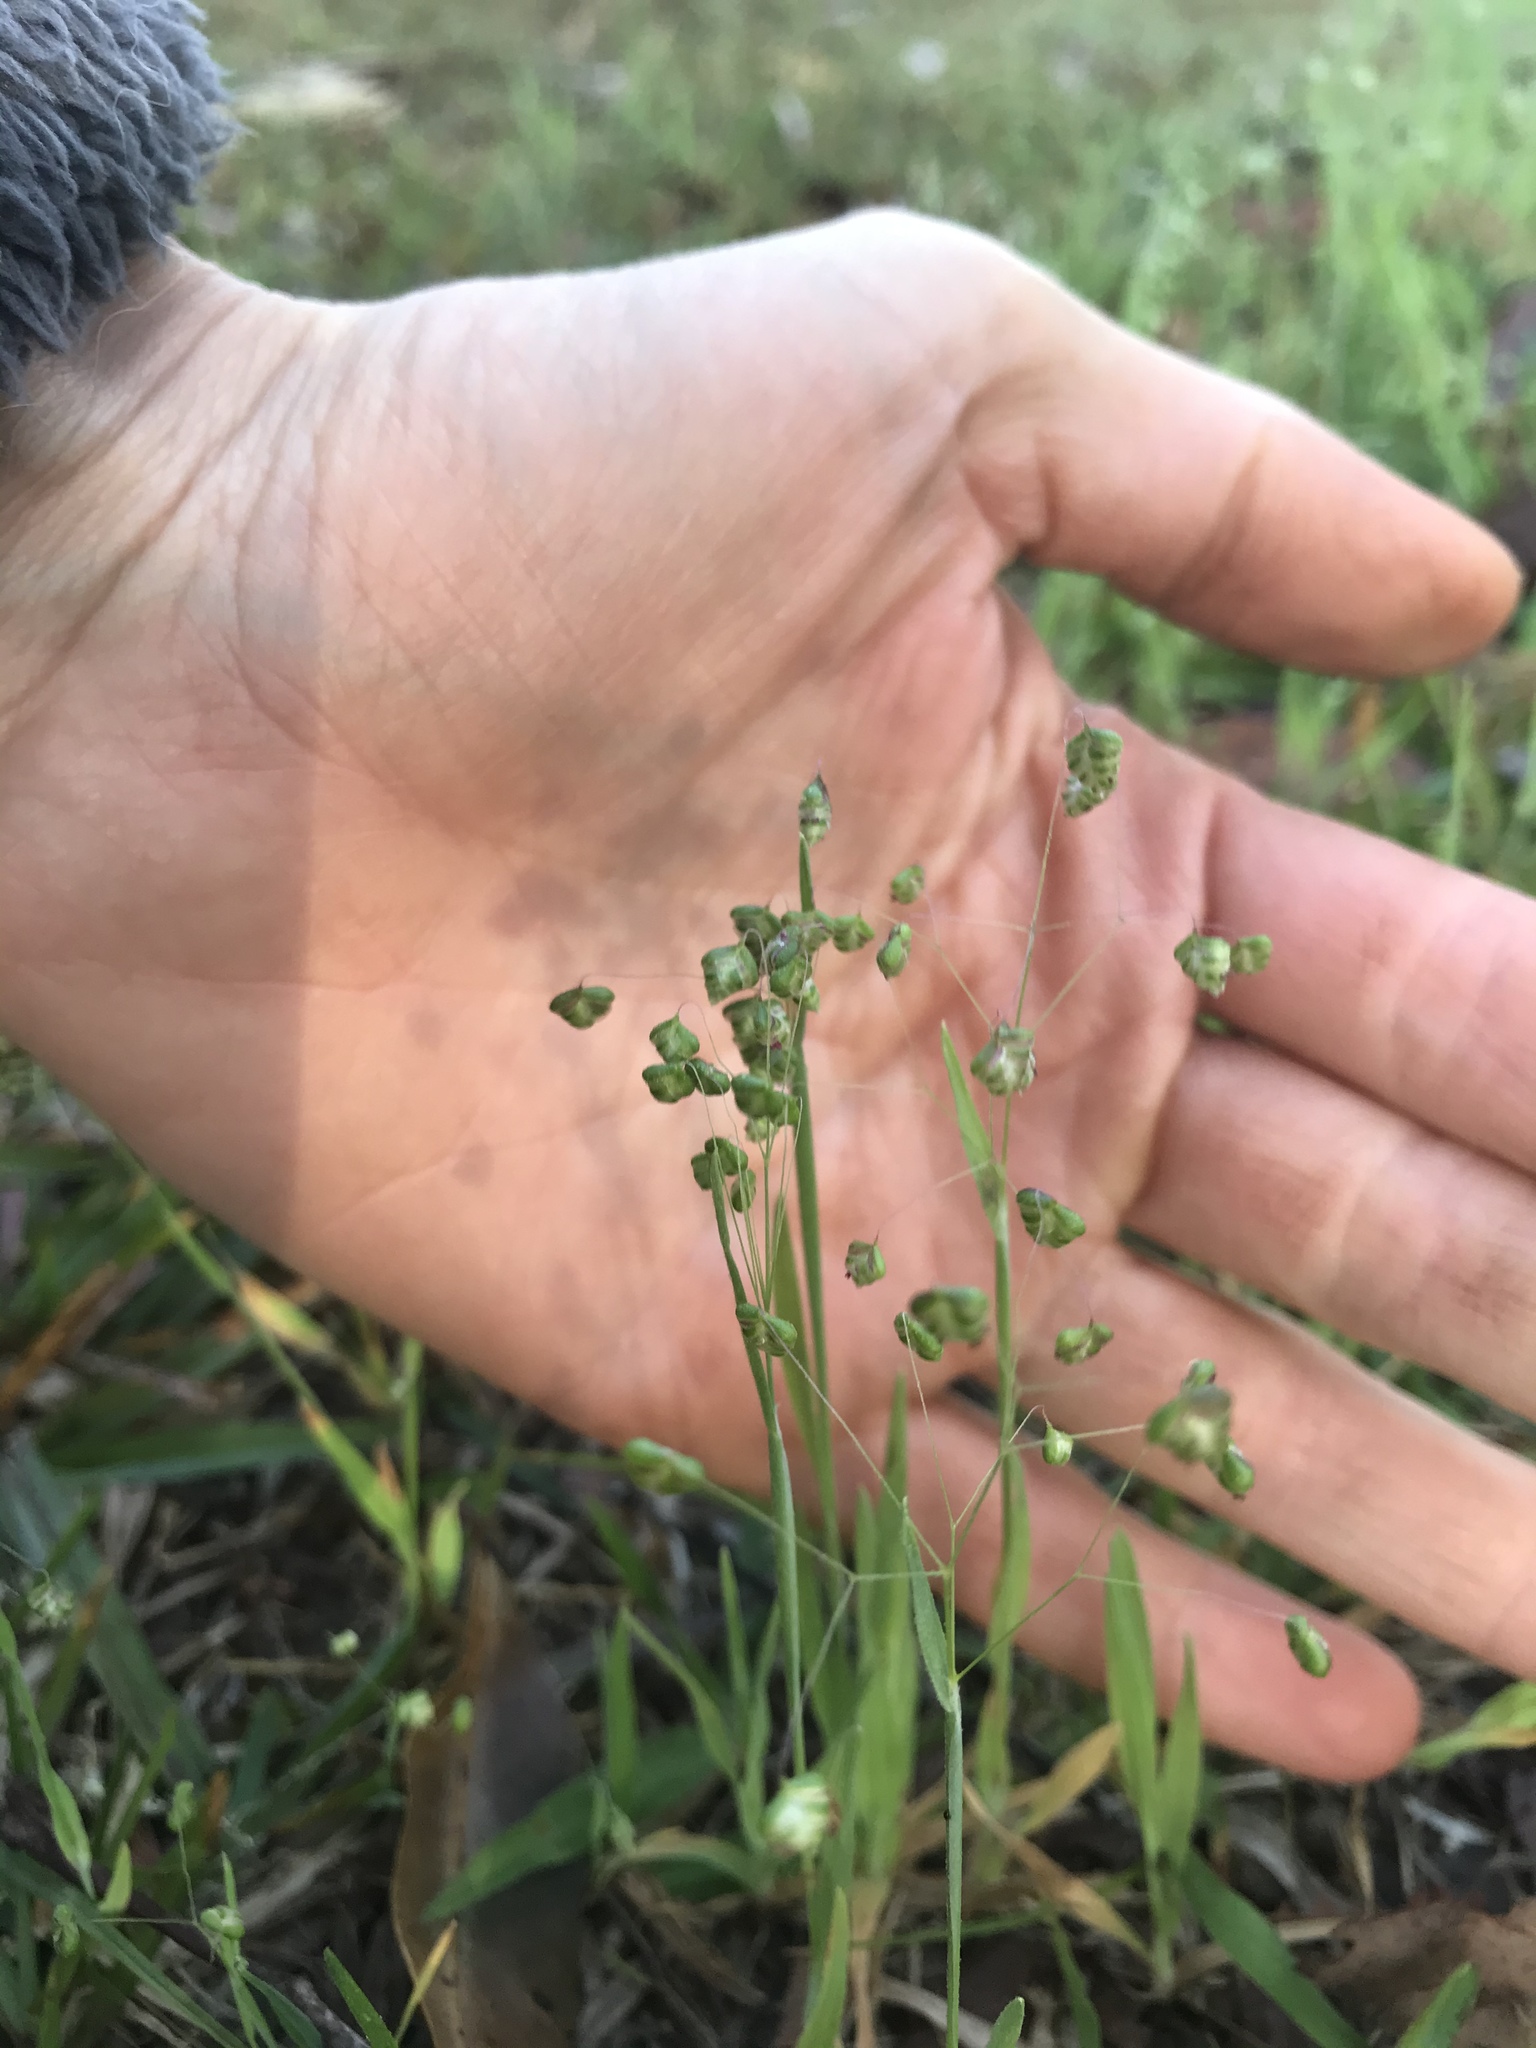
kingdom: Plantae
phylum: Tracheophyta
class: Liliopsida
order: Poales
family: Poaceae
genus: Briza
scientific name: Briza minor
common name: Lesser quaking-grass
